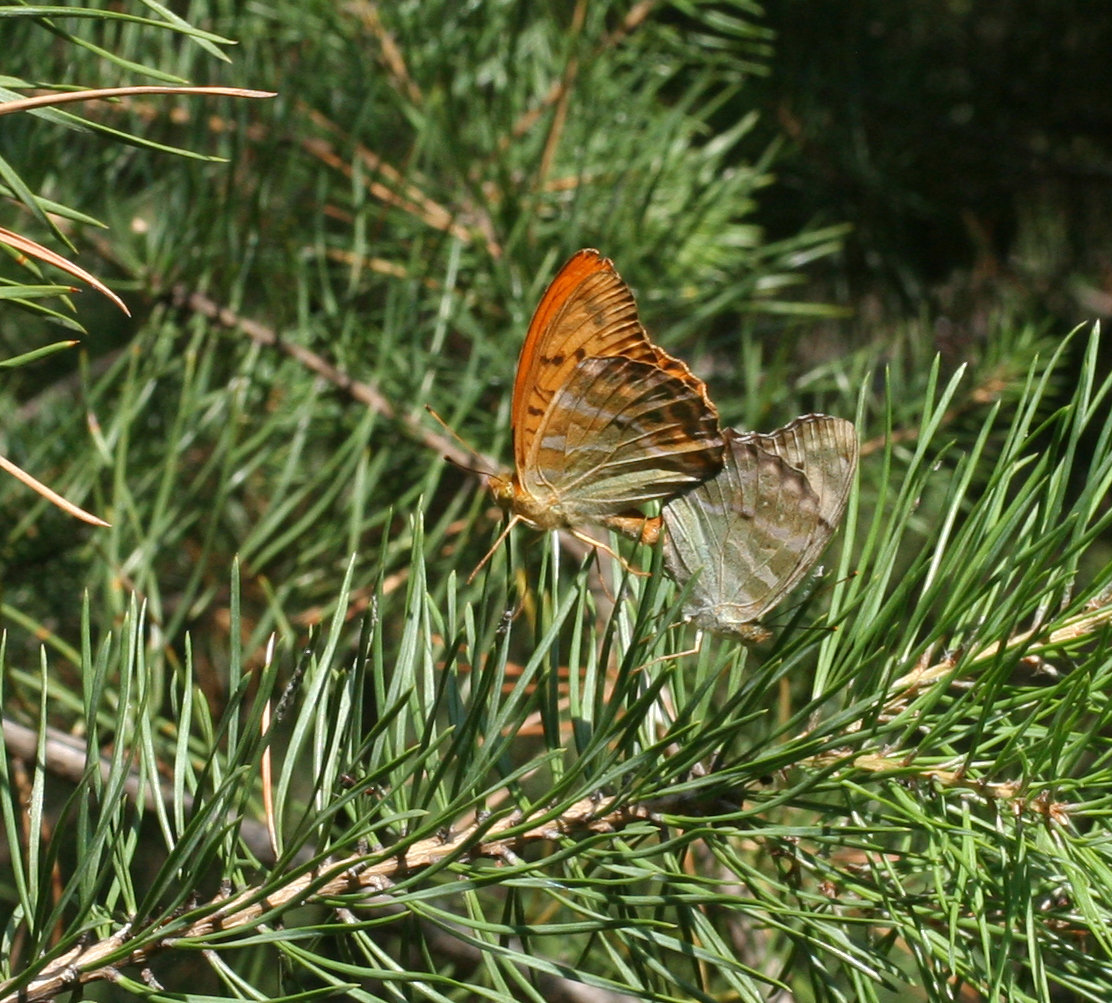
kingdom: Animalia
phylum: Arthropoda
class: Insecta
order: Lepidoptera
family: Nymphalidae
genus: Argynnis
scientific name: Argynnis paphia
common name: Silver-washed fritillary
